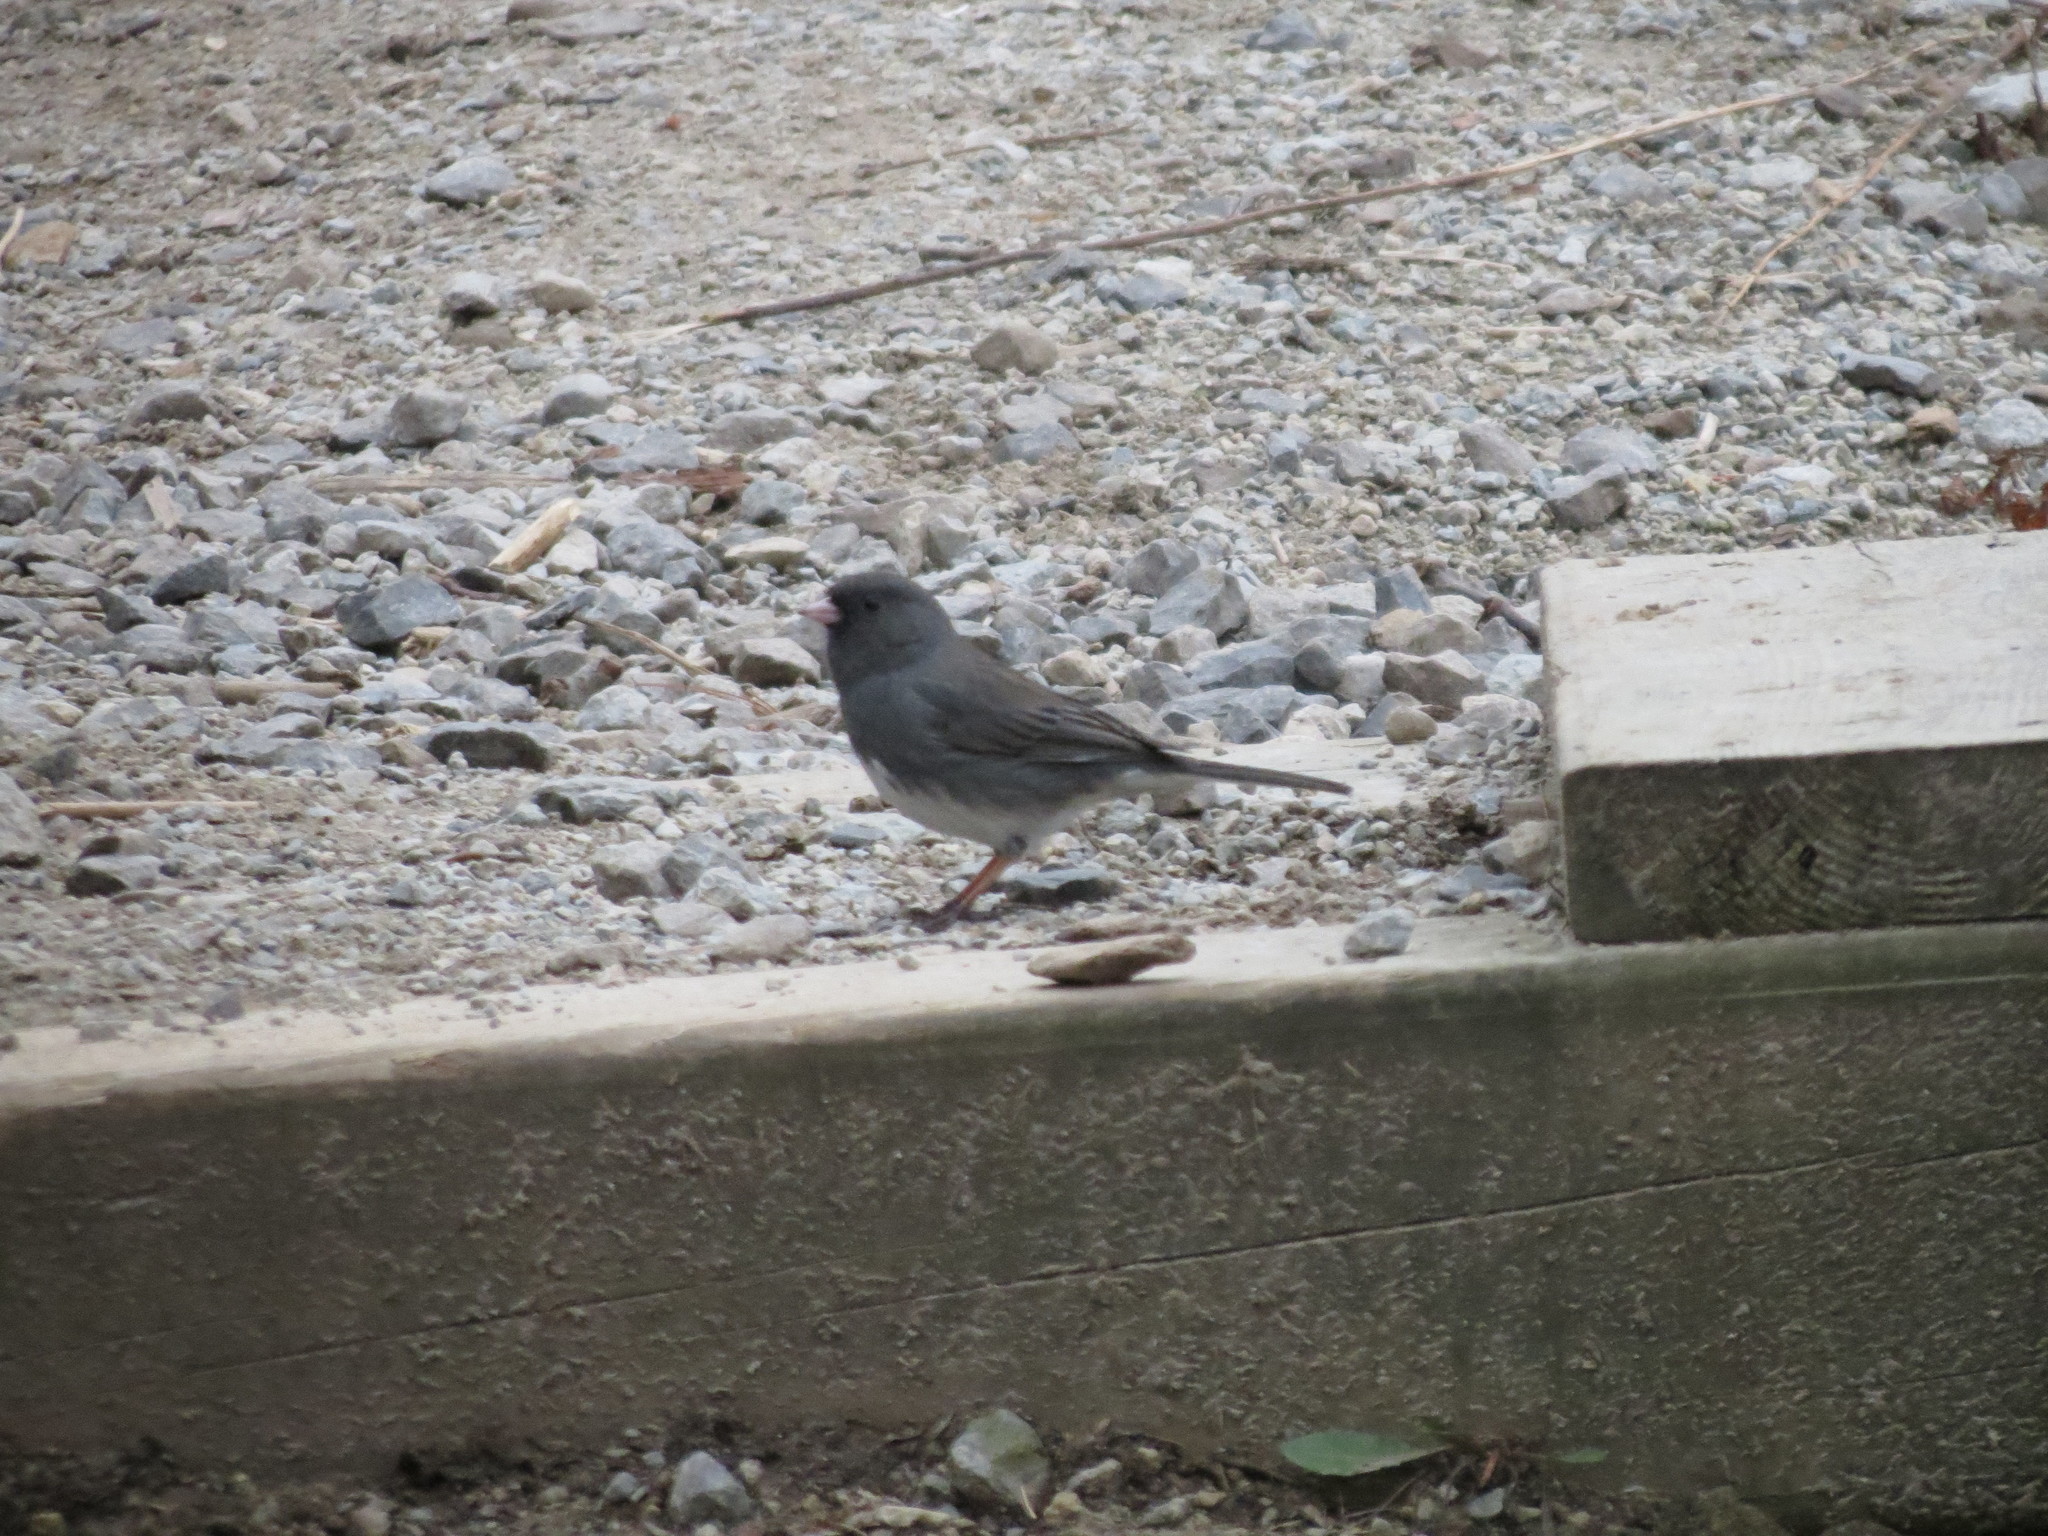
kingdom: Animalia
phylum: Chordata
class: Aves
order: Passeriformes
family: Passerellidae
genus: Junco
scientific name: Junco hyemalis
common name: Dark-eyed junco
